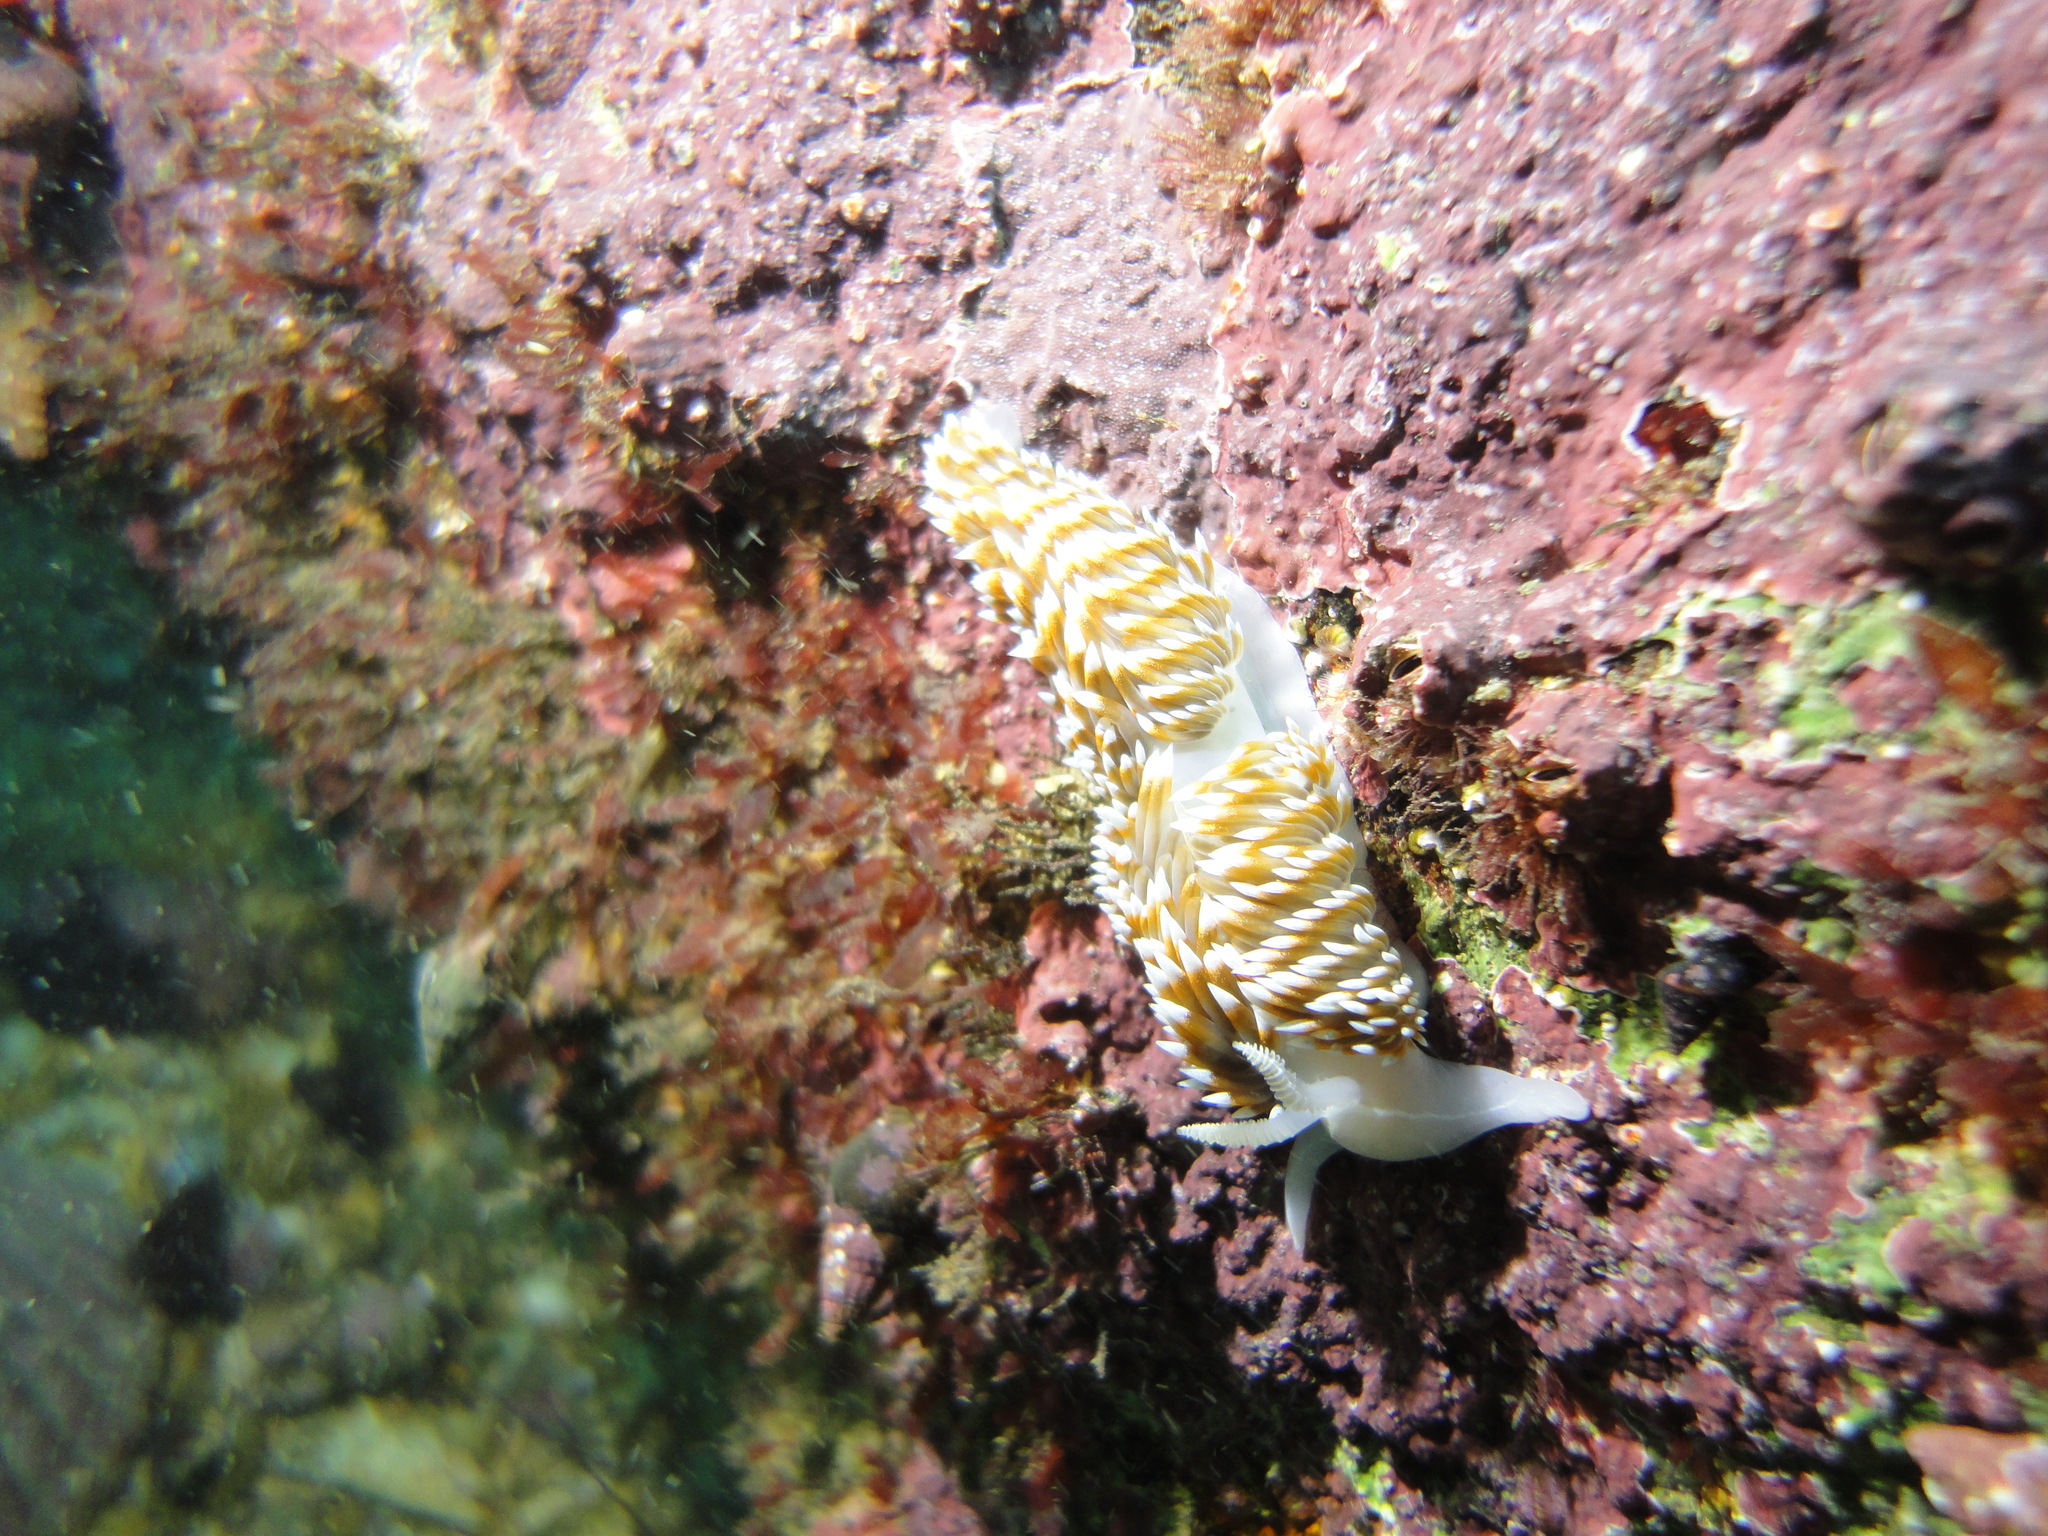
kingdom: Animalia
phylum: Mollusca
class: Gastropoda
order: Nudibranchia
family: Facelinidae
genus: Phidiana
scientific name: Phidiana lottini
